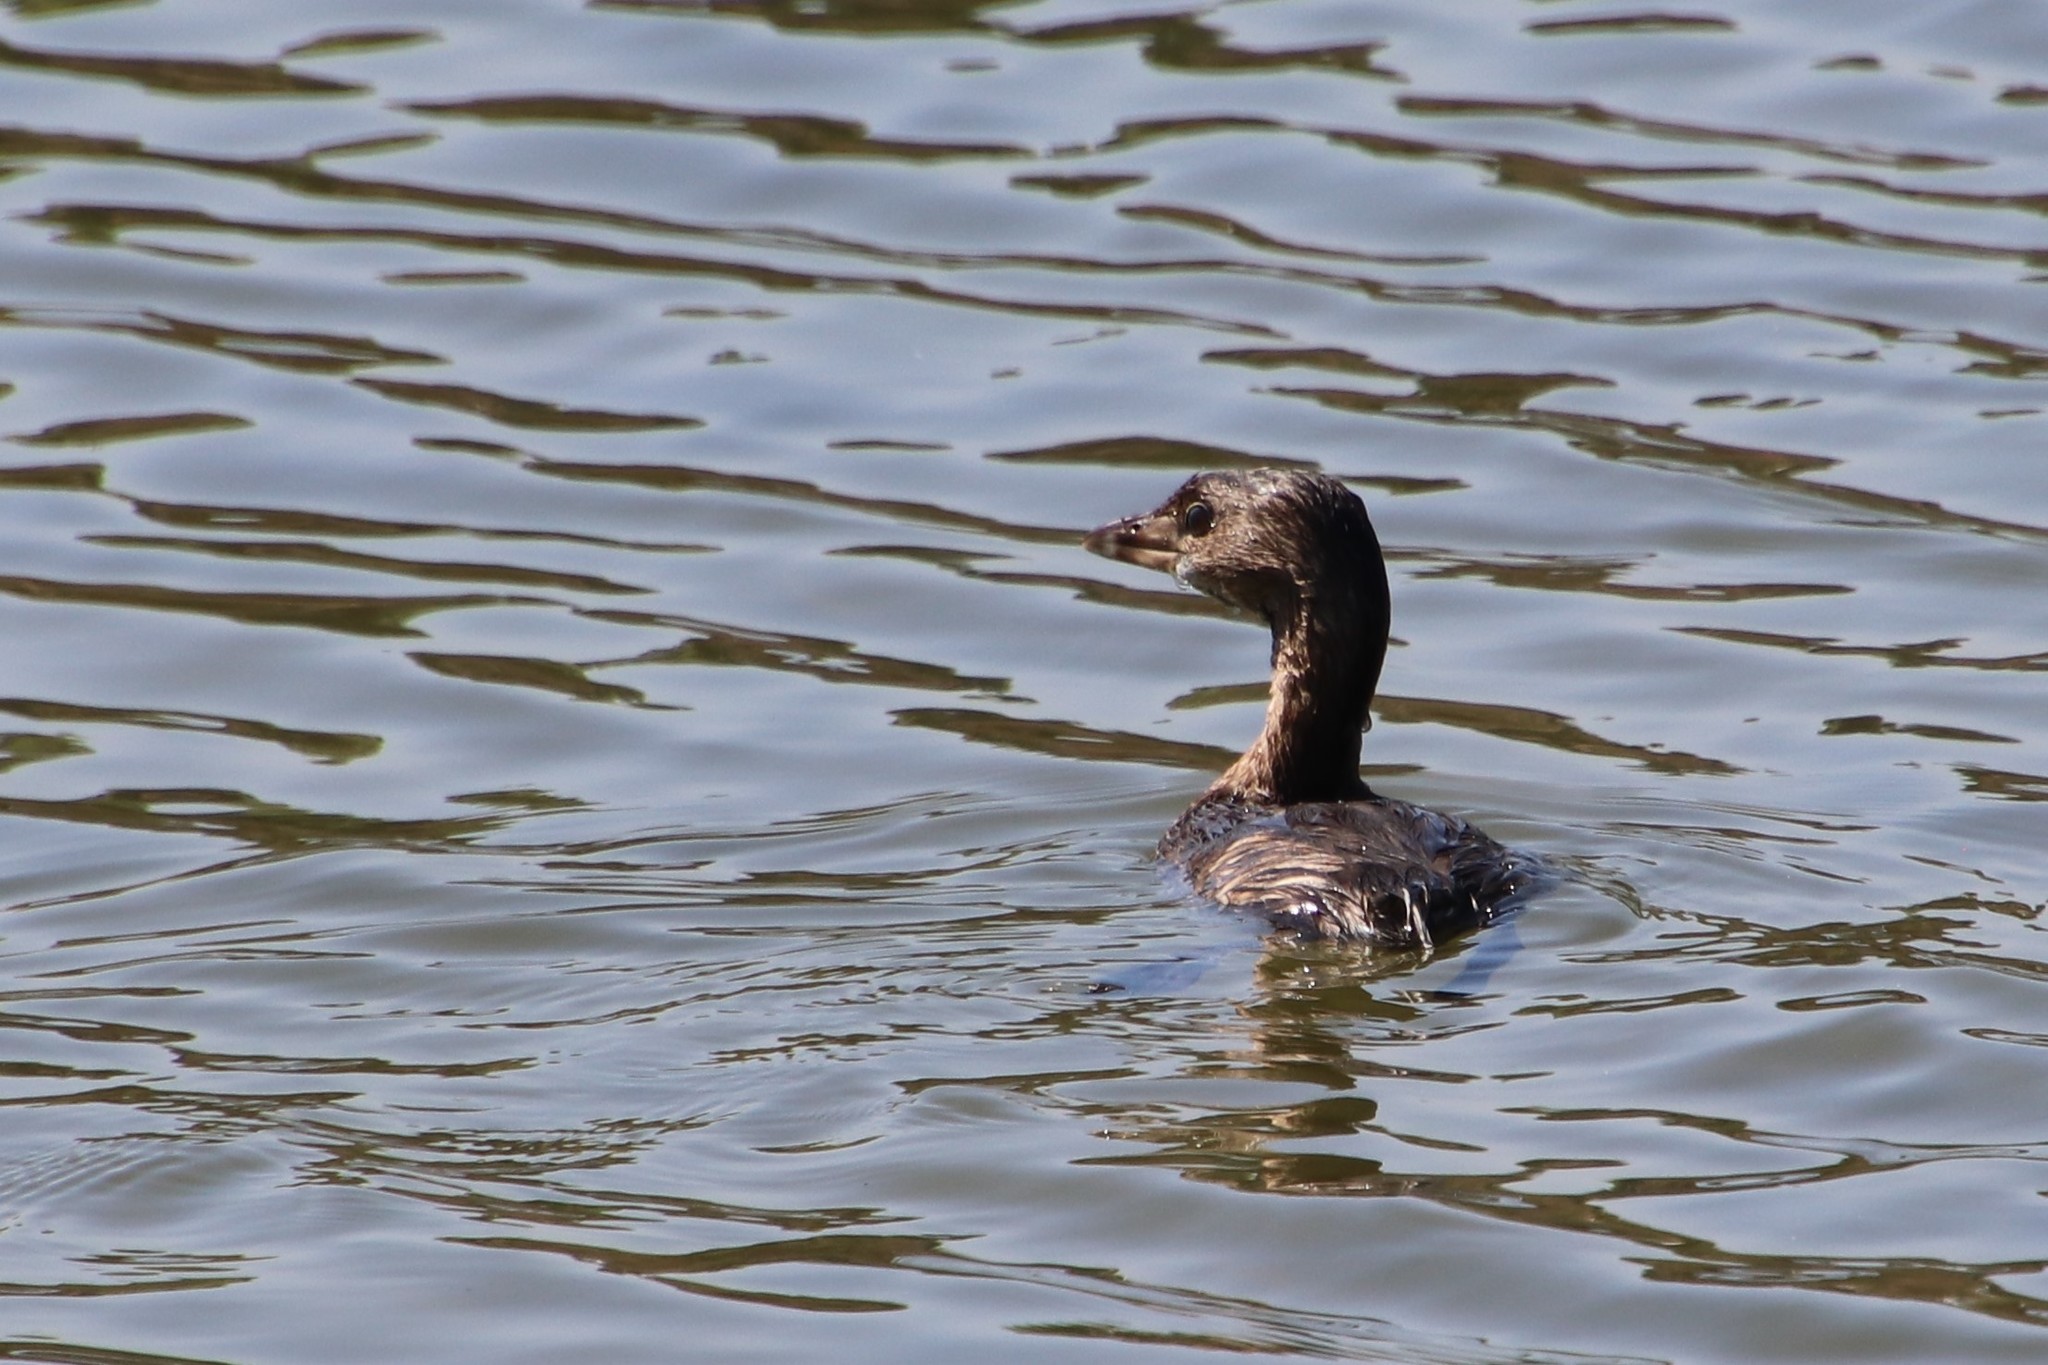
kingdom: Animalia
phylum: Chordata
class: Aves
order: Podicipediformes
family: Podicipedidae
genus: Podilymbus
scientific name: Podilymbus podiceps
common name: Pied-billed grebe
